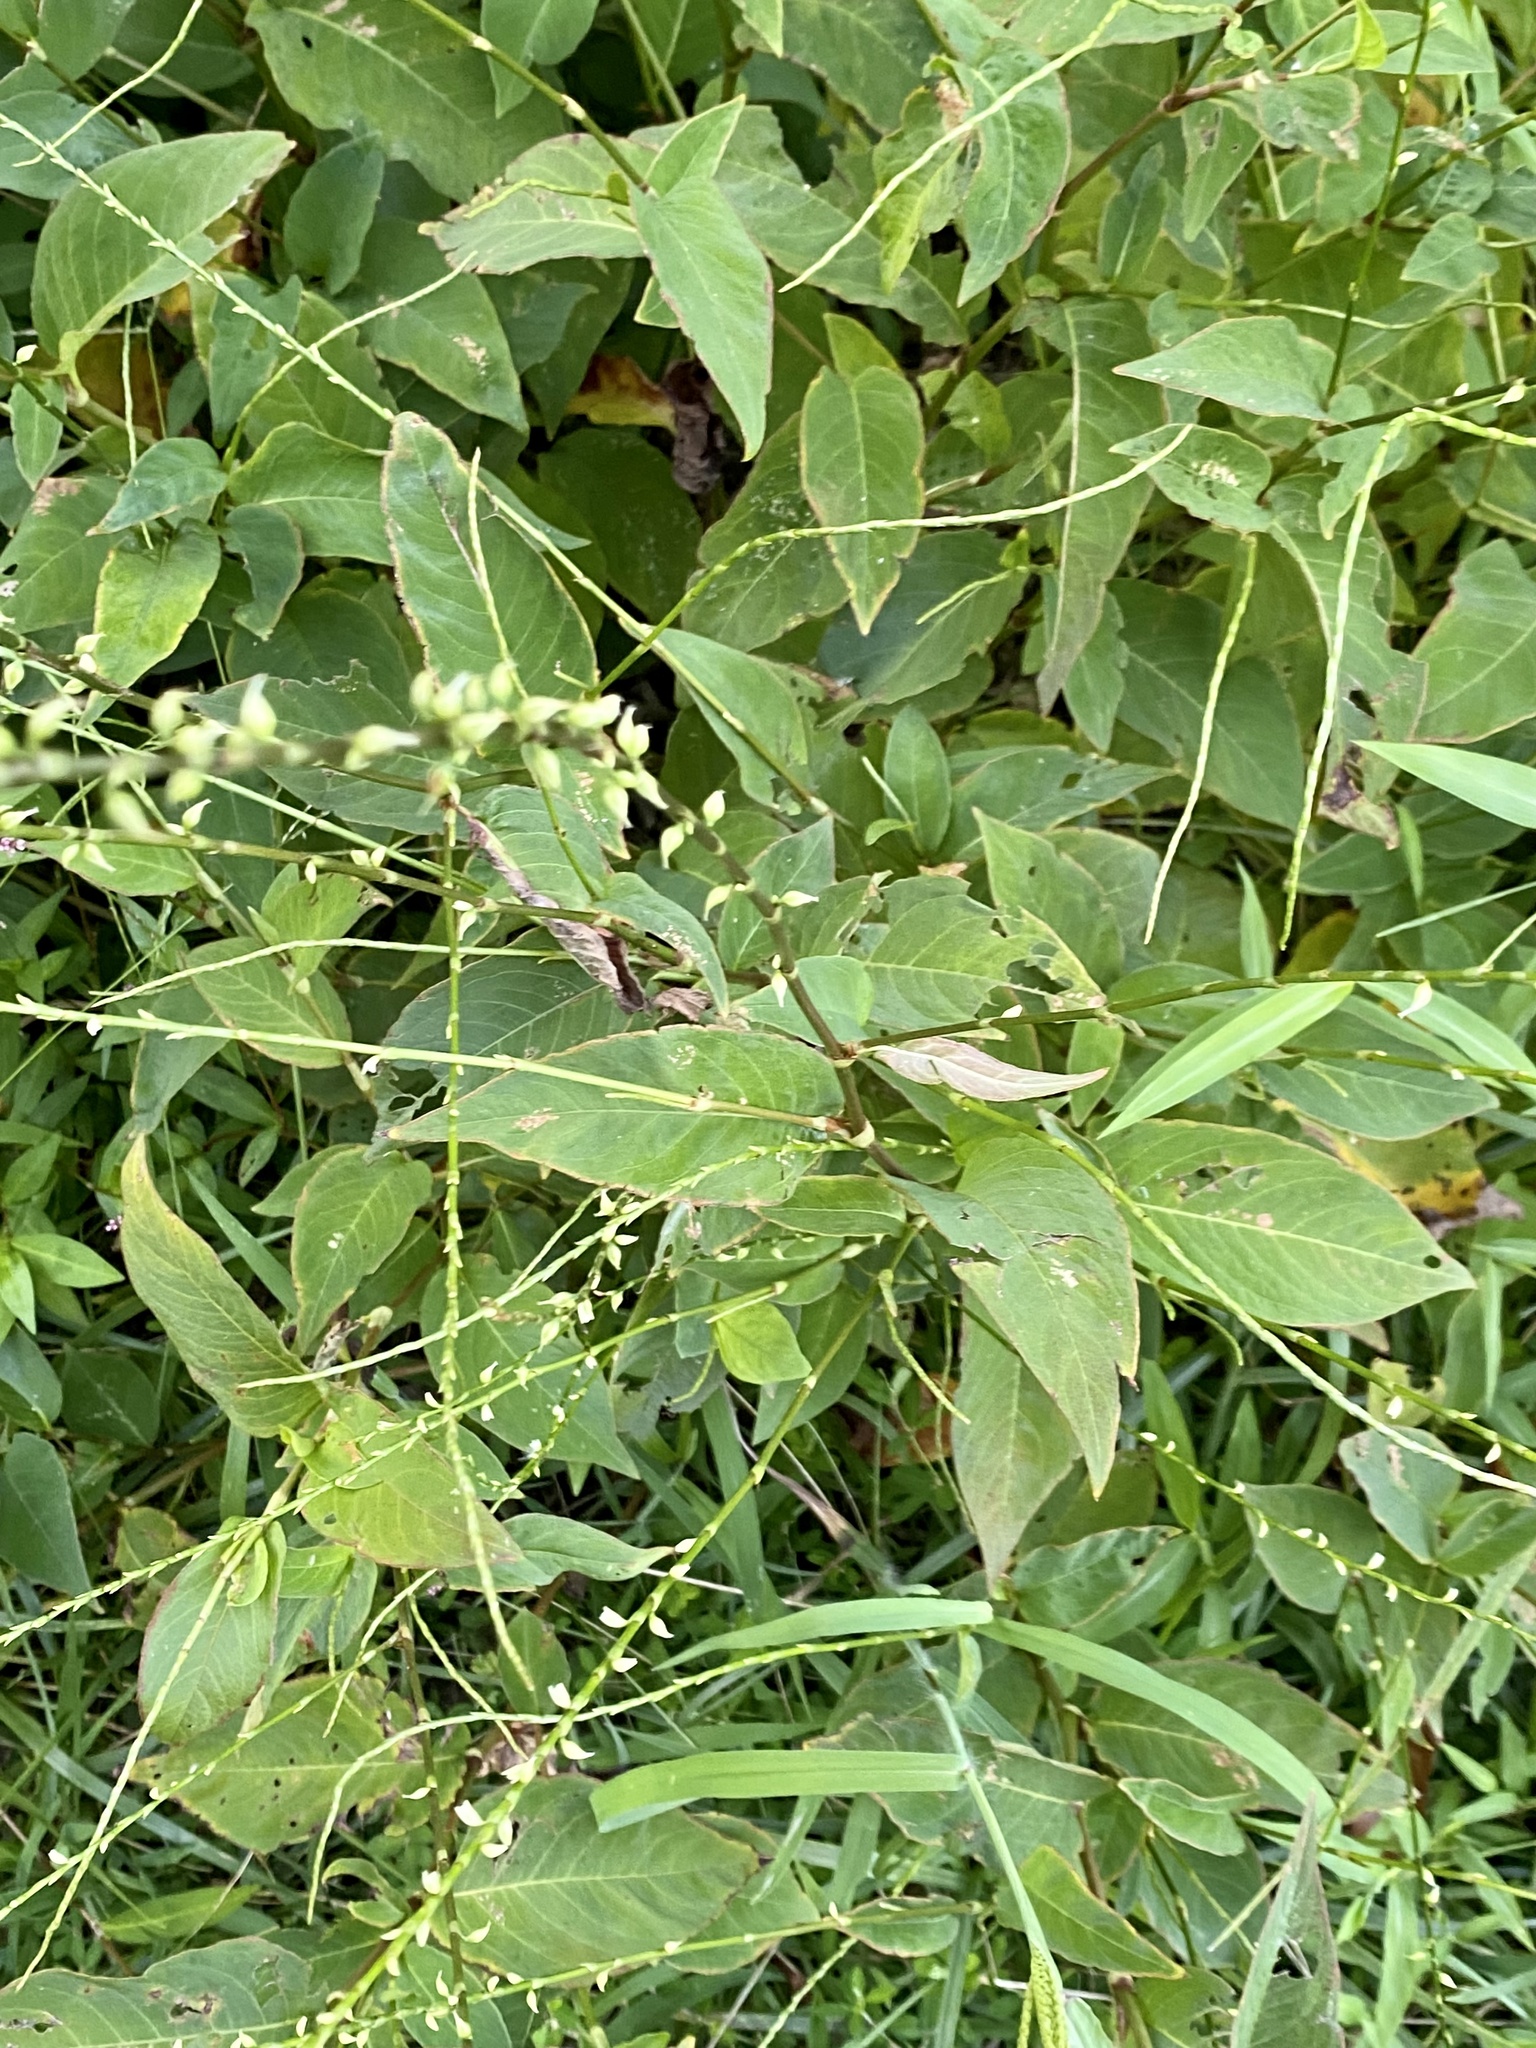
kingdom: Plantae
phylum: Tracheophyta
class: Magnoliopsida
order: Caryophyllales
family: Polygonaceae
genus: Persicaria
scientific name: Persicaria virginiana
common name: Jumpseed
